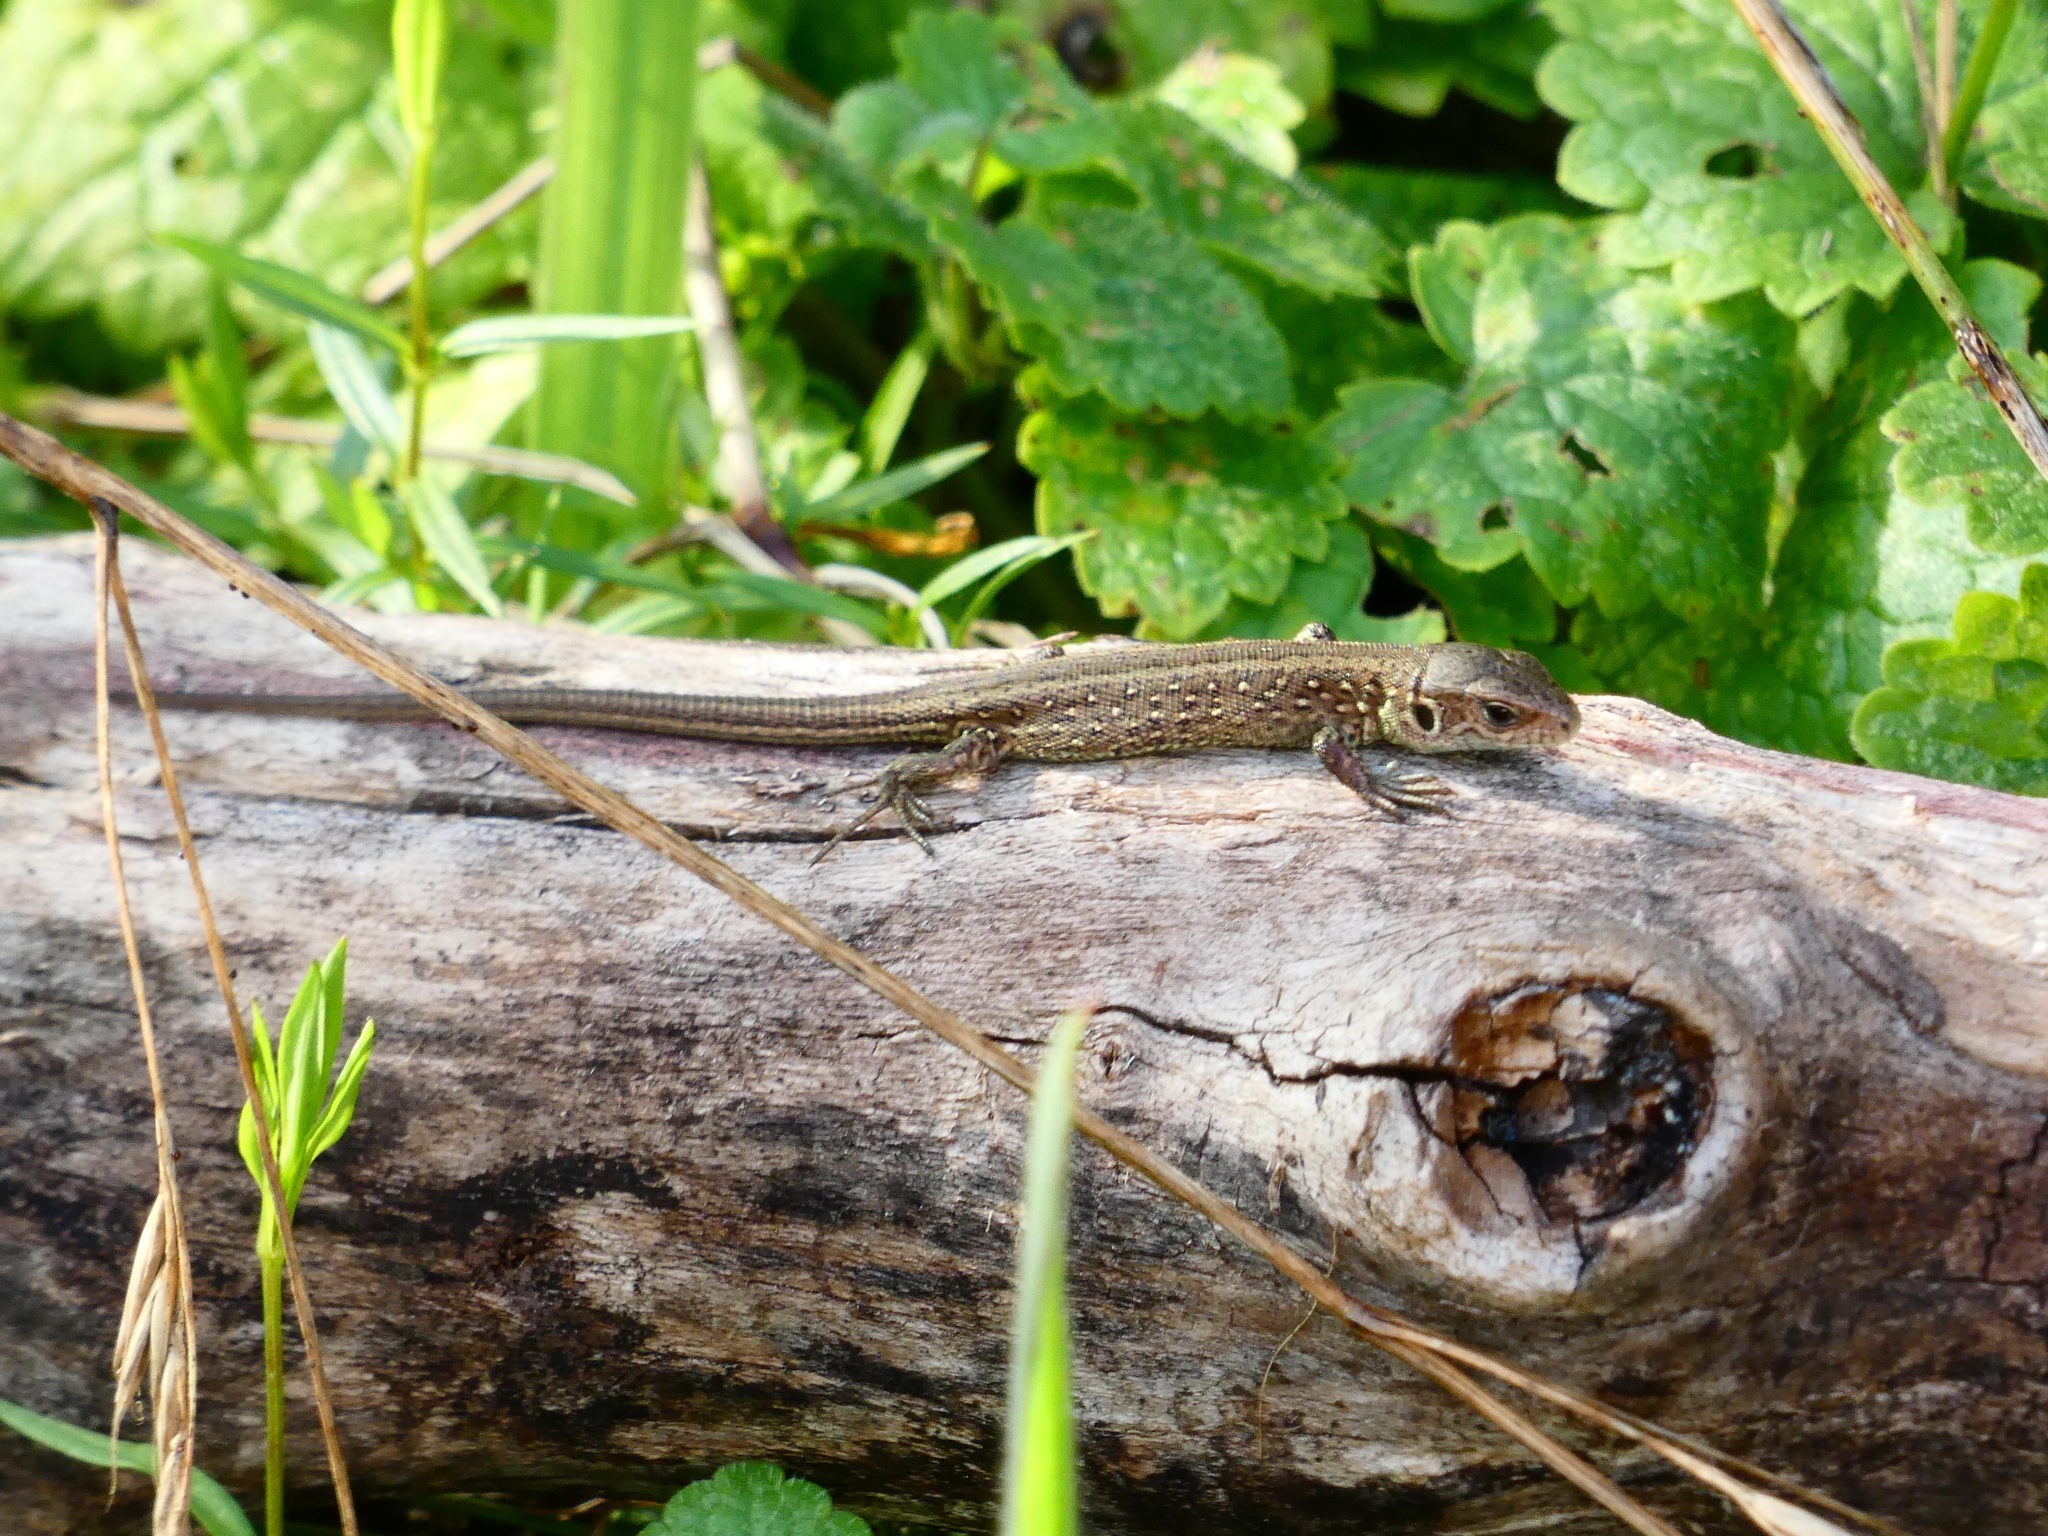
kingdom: Animalia
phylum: Chordata
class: Squamata
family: Lacertidae
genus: Lacerta
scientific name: Lacerta agilis
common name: Sand lizard
